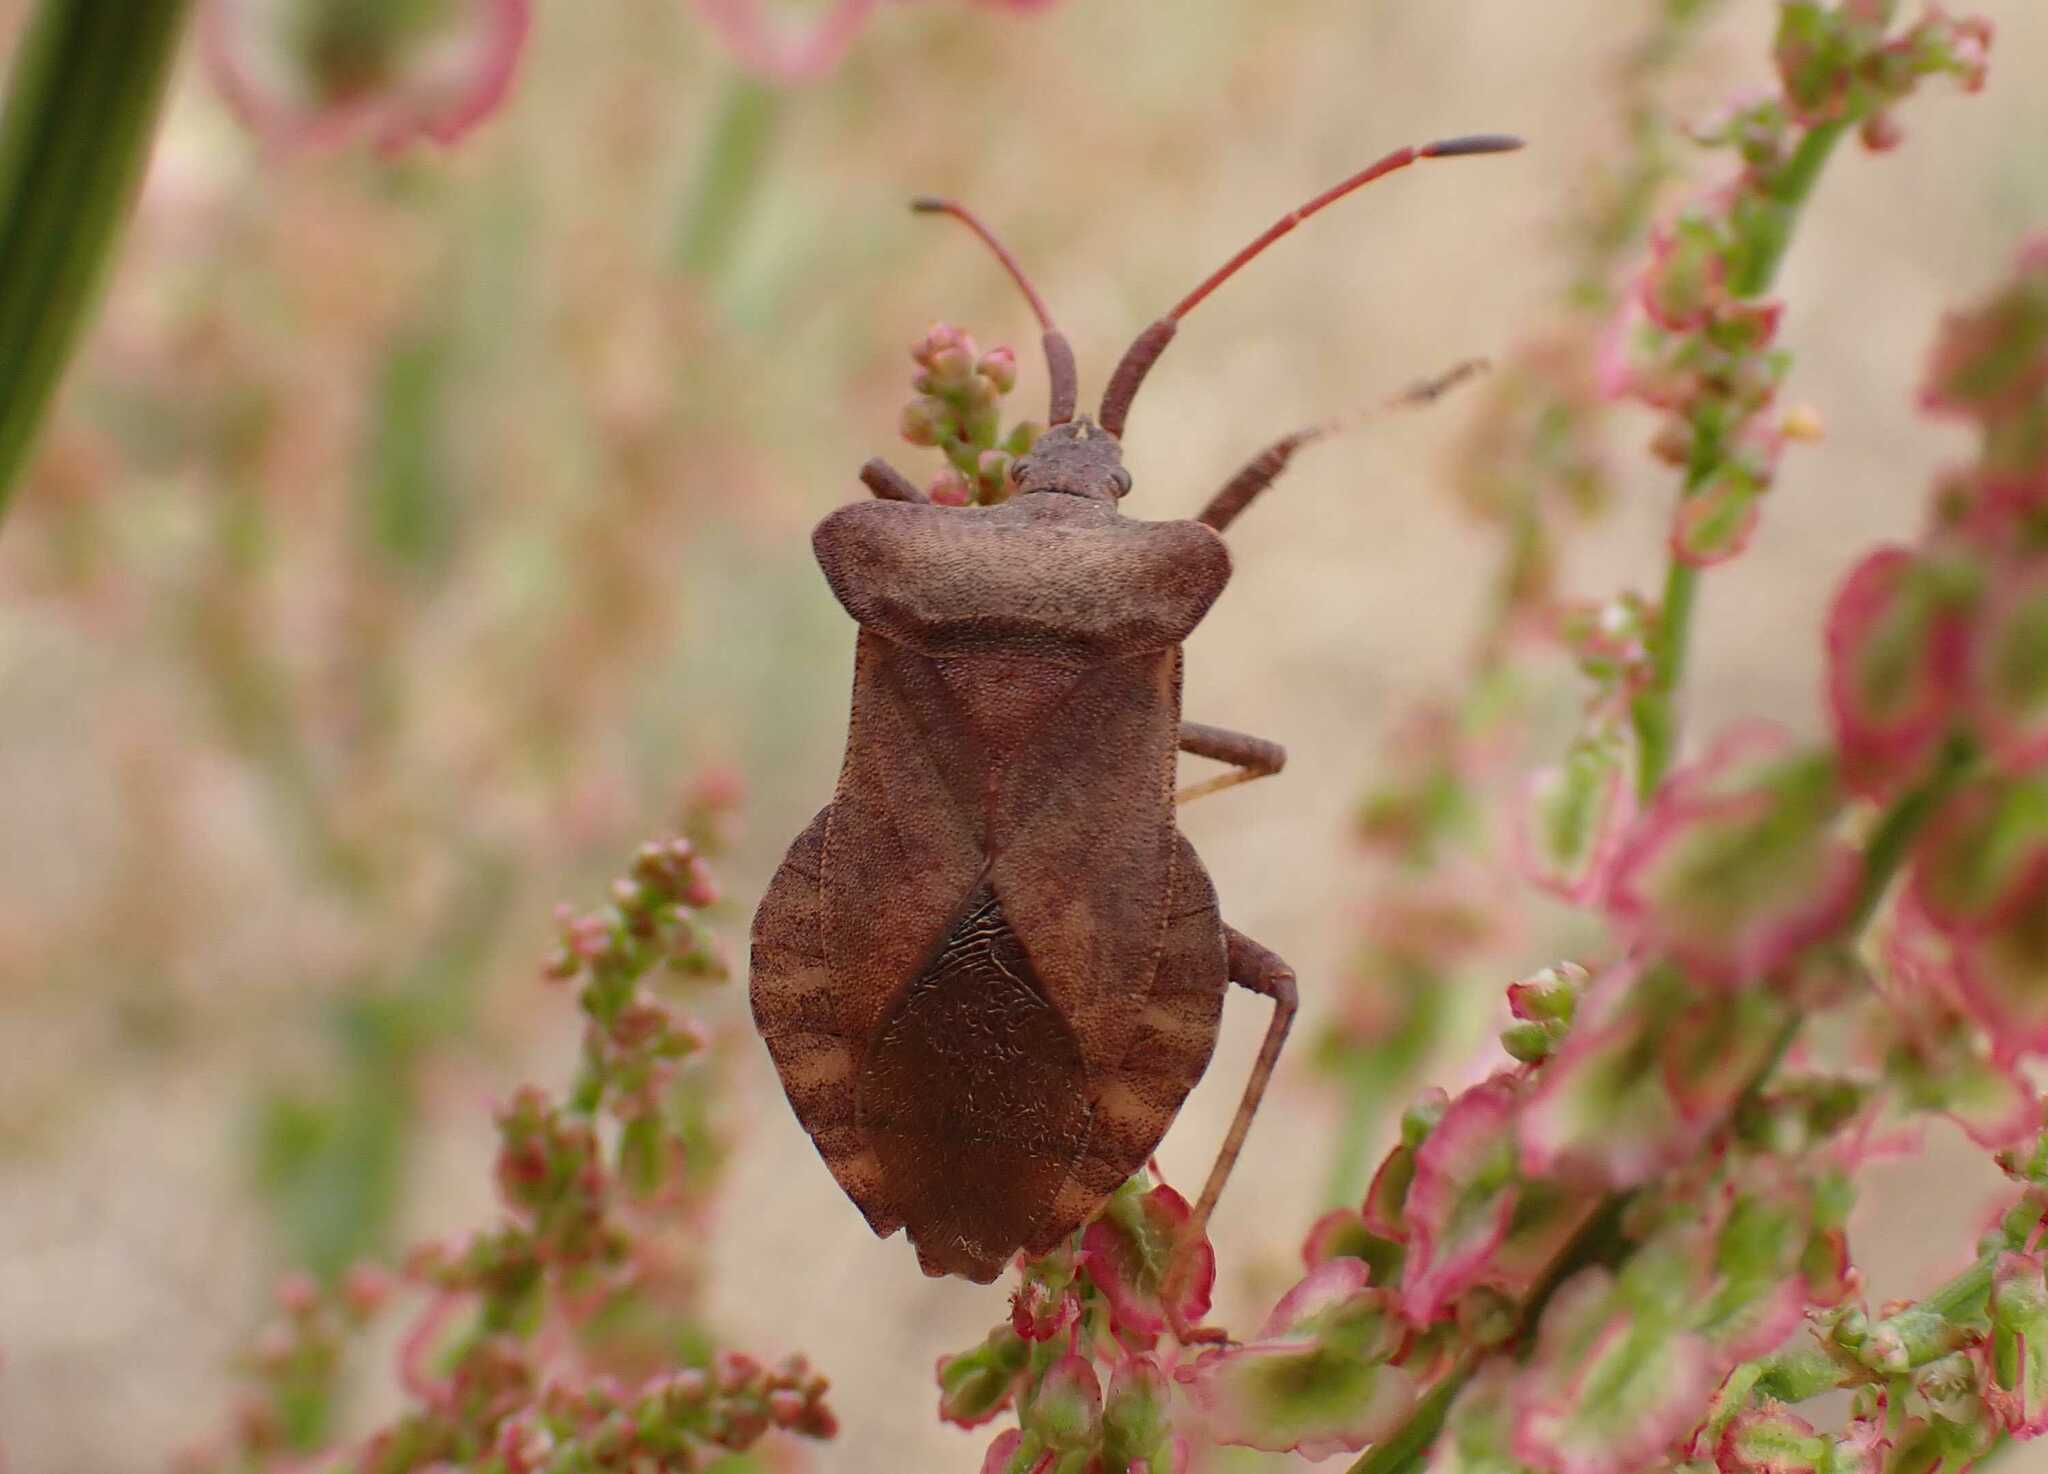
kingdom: Animalia
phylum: Arthropoda
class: Insecta
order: Hemiptera
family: Coreidae
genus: Coreus
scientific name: Coreus marginatus
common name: Dock bug
